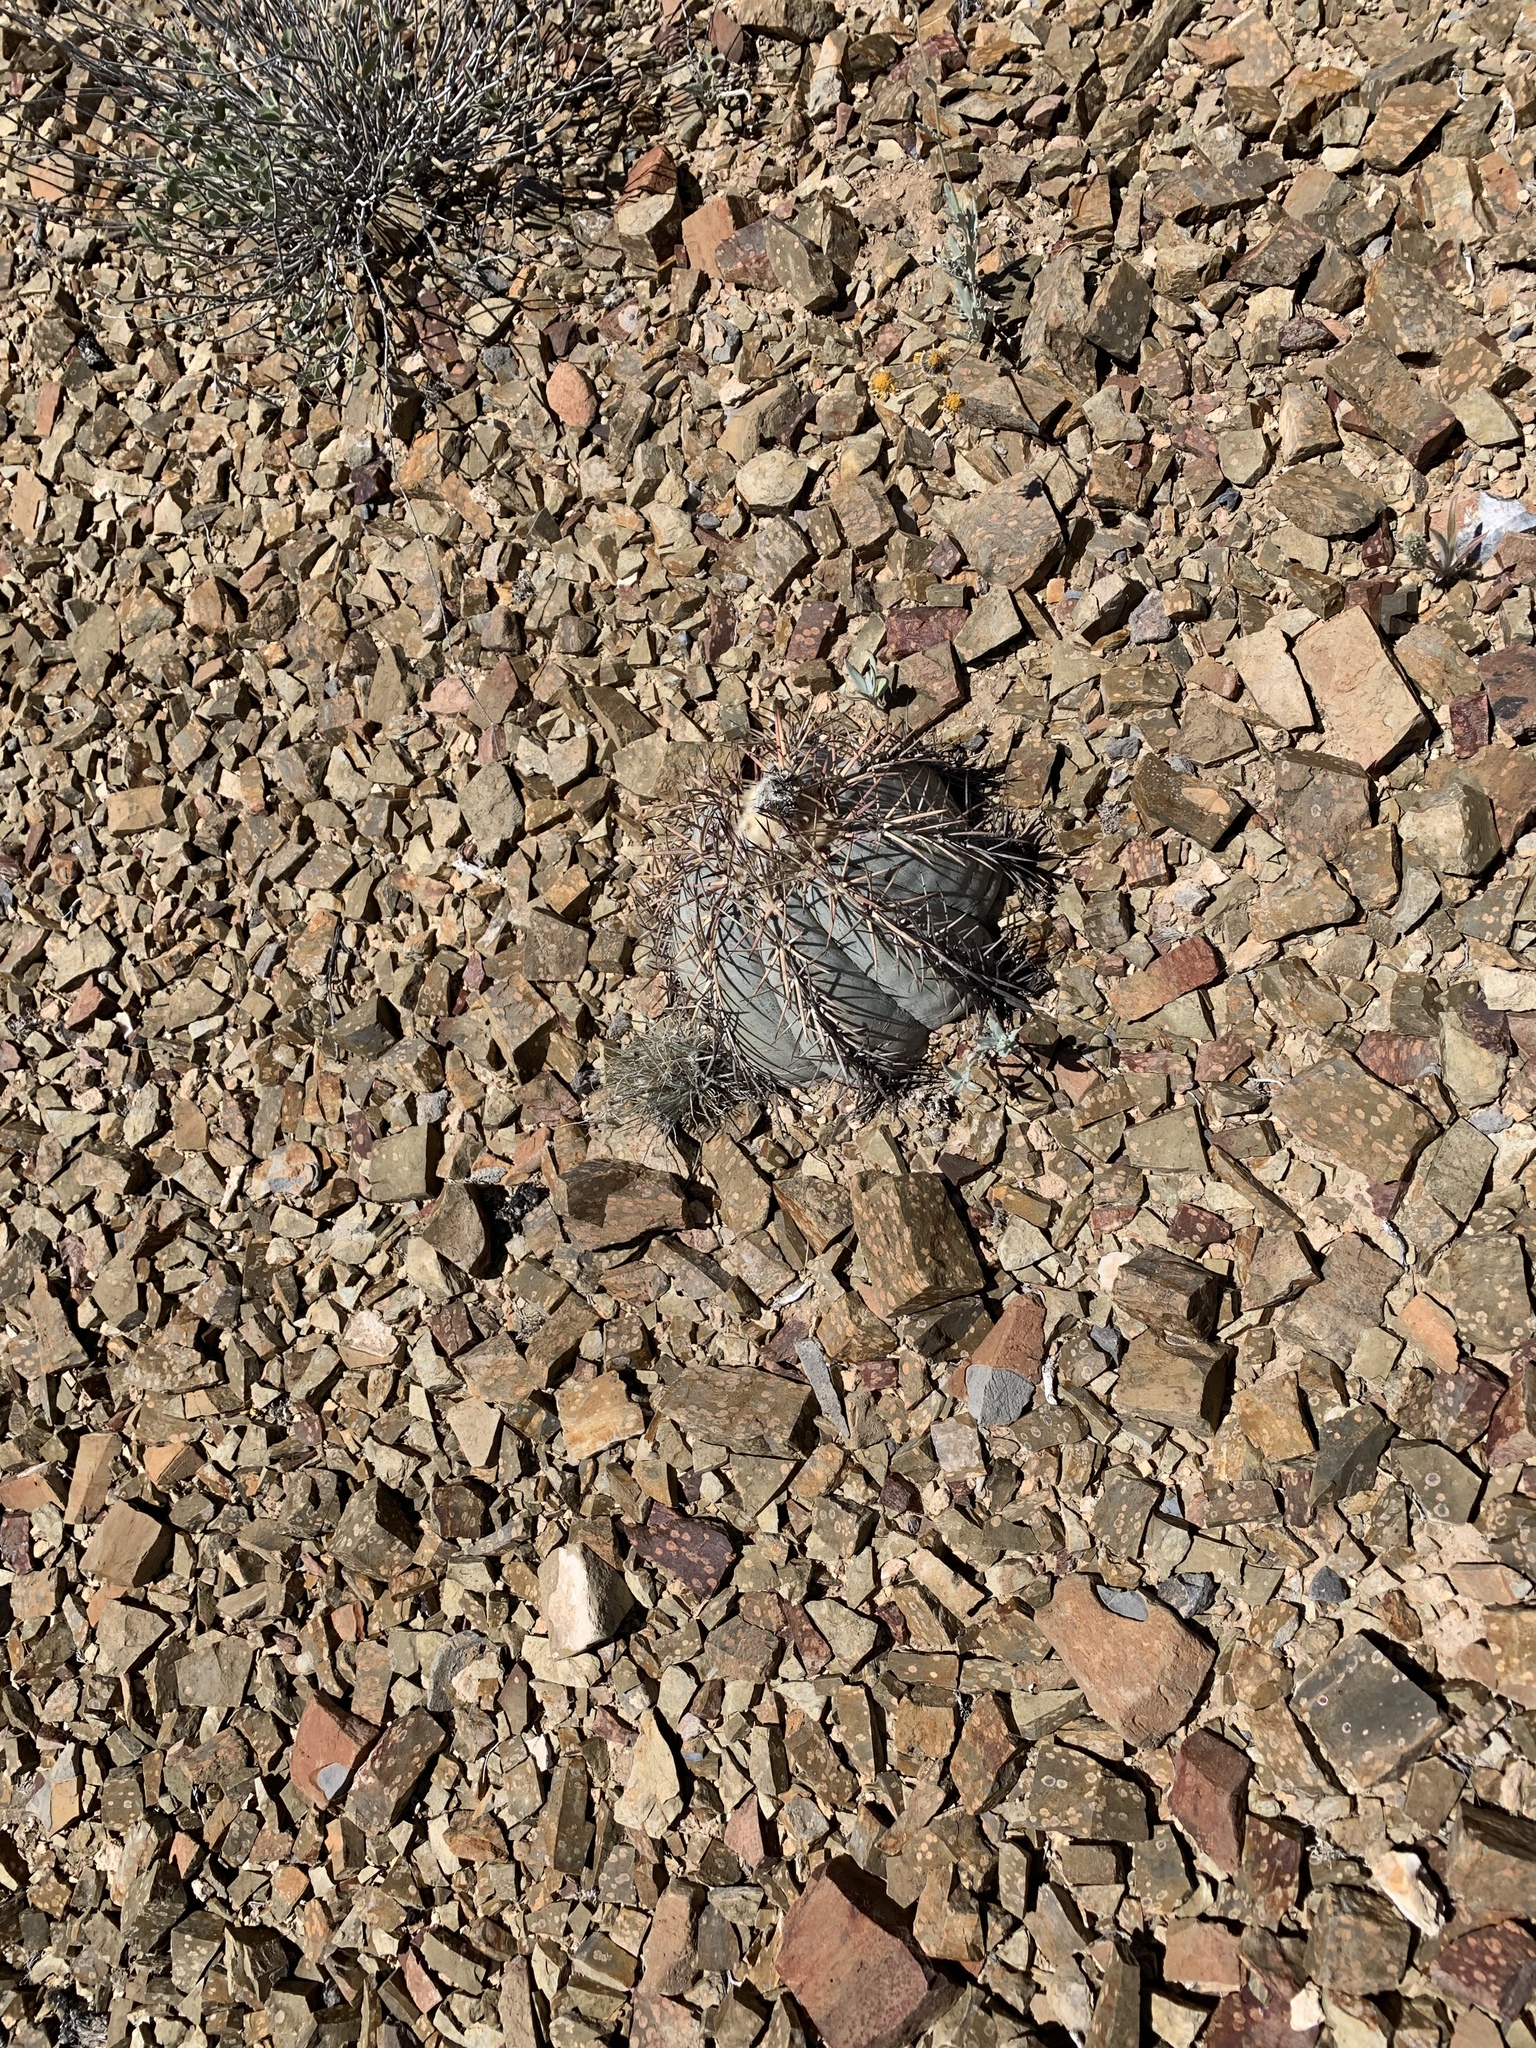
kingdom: Plantae
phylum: Tracheophyta
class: Magnoliopsida
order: Caryophyllales
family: Cactaceae
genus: Echinocactus
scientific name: Echinocactus horizonthalonius
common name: Devilshead
